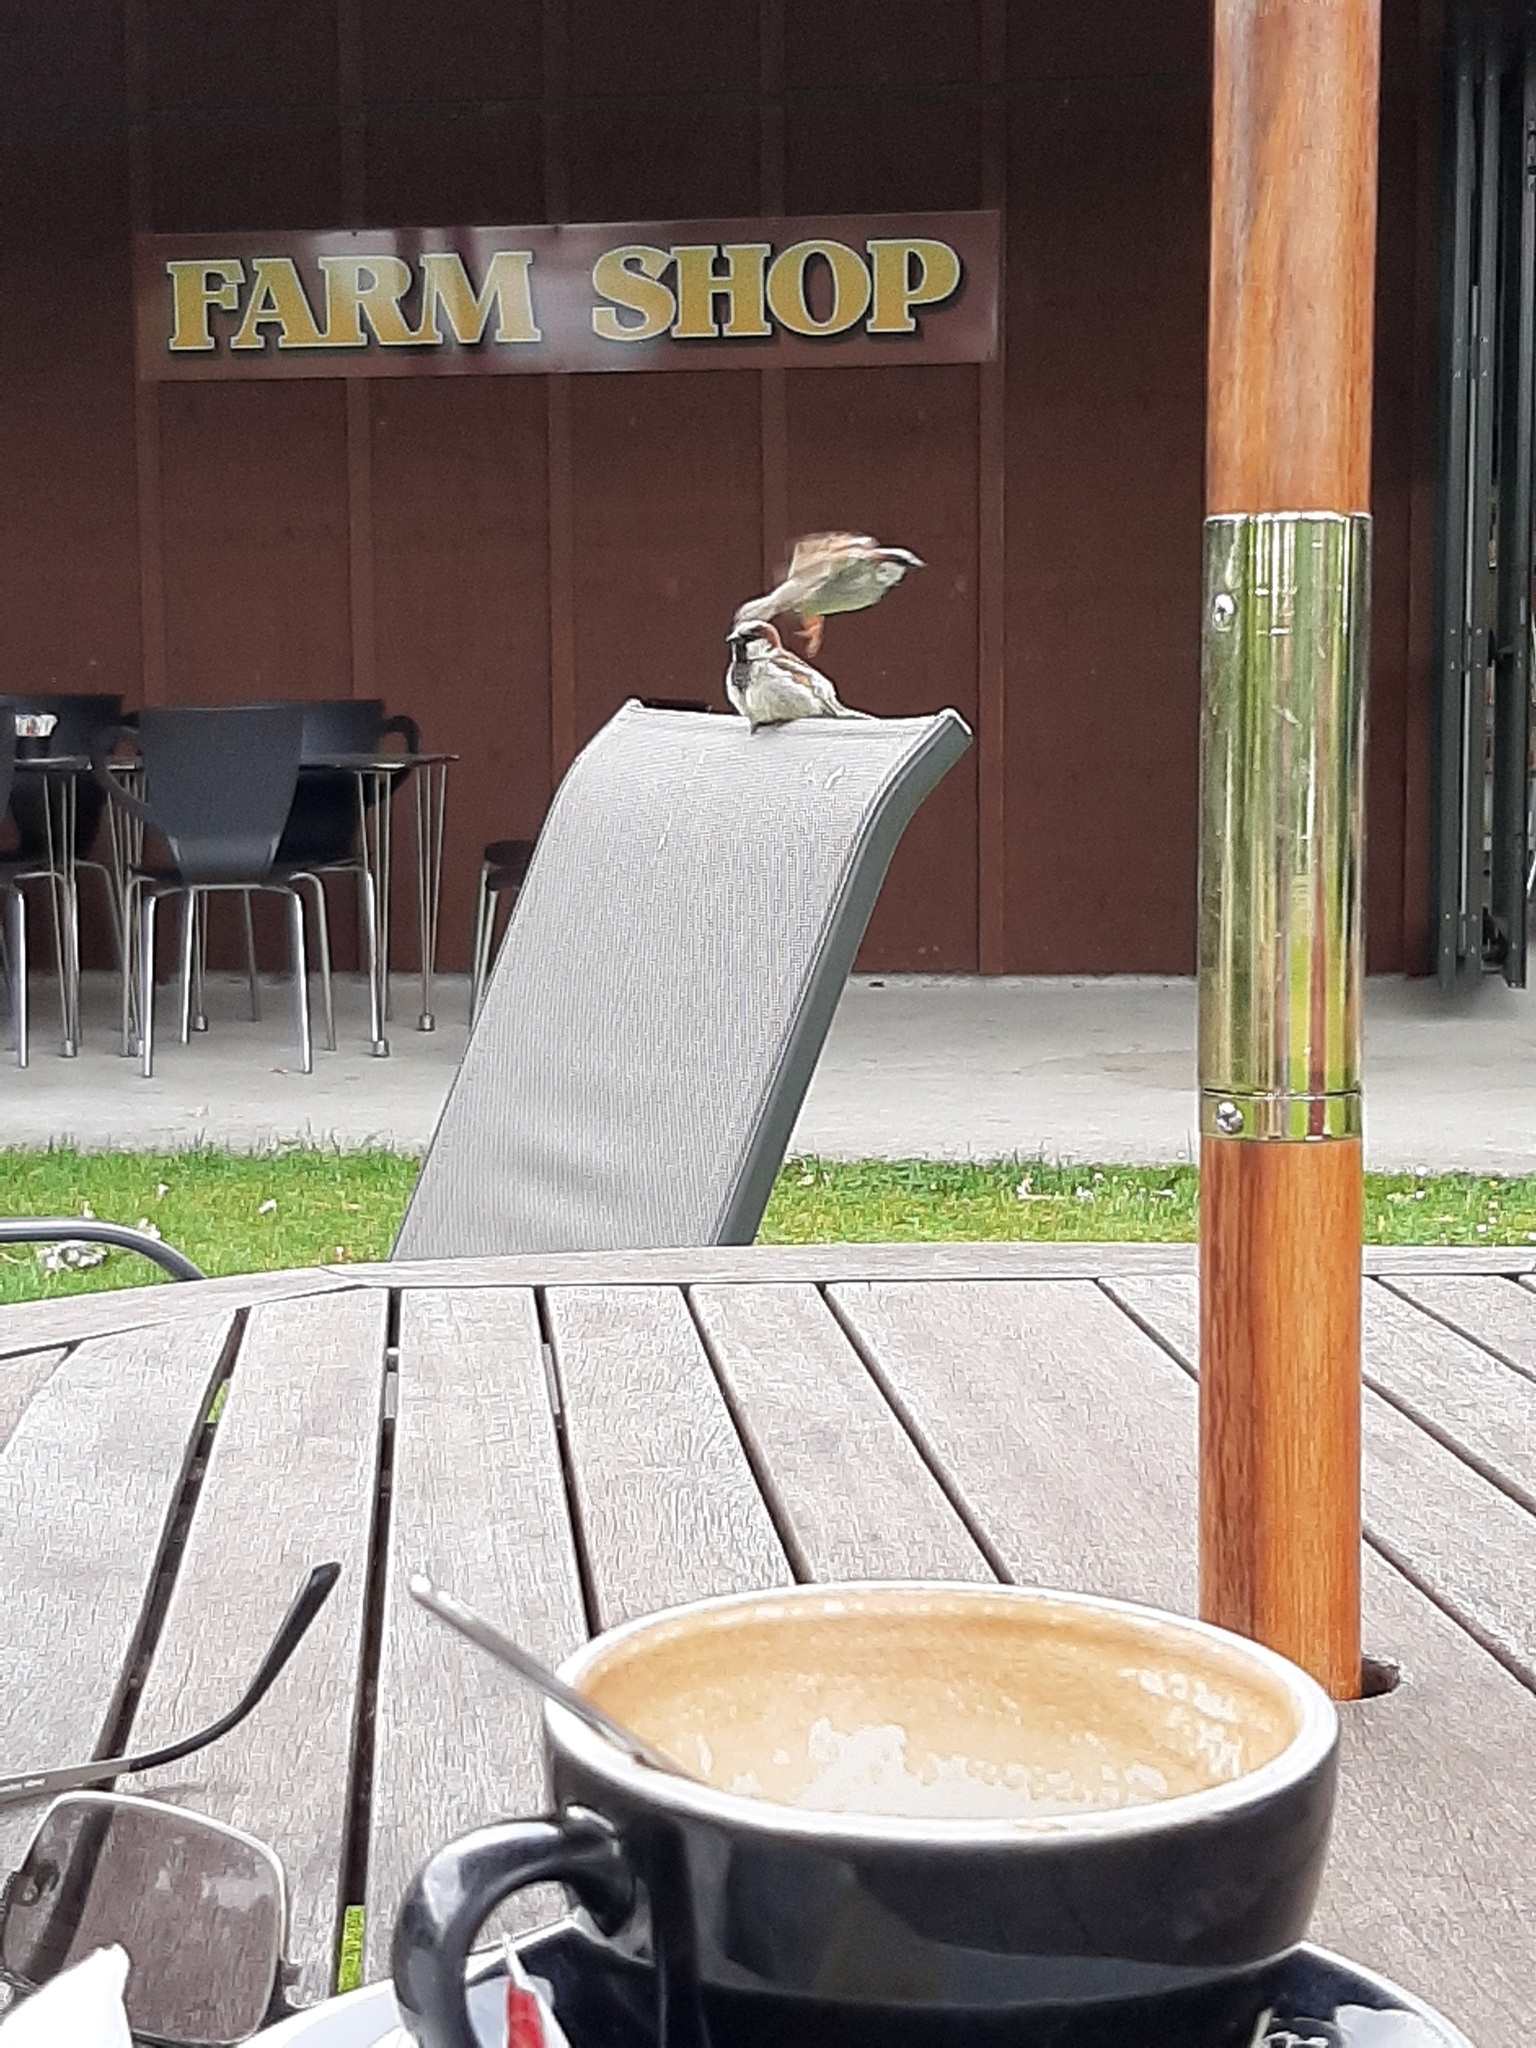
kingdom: Animalia
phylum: Chordata
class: Aves
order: Passeriformes
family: Passeridae
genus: Passer
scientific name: Passer domesticus
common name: House sparrow
